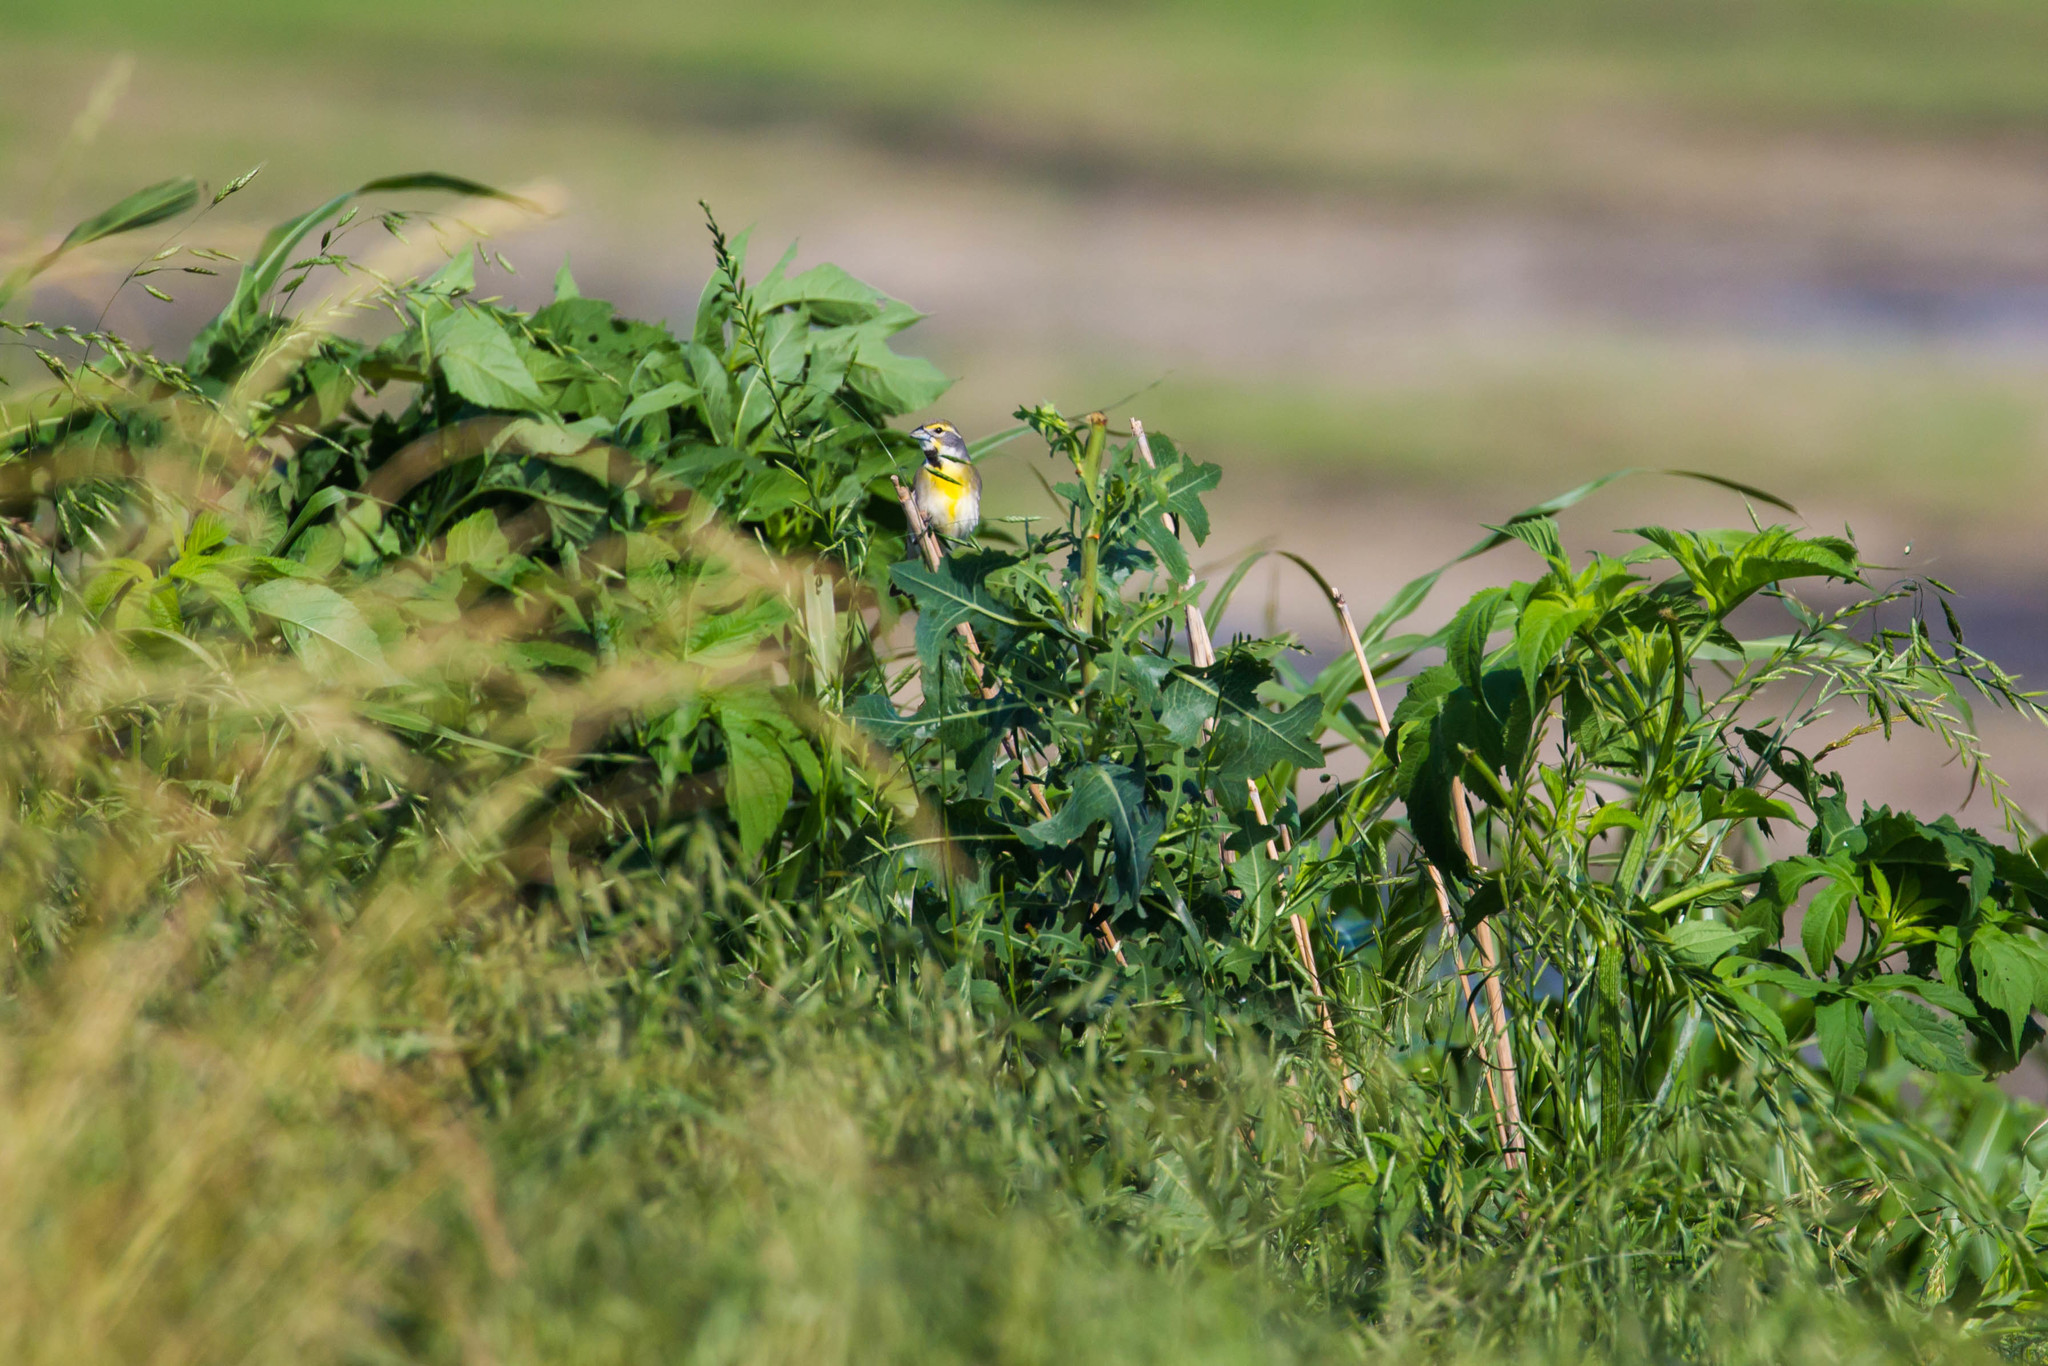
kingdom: Animalia
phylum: Chordata
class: Aves
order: Passeriformes
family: Cardinalidae
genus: Spiza
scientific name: Spiza americana
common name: Dickcissel
